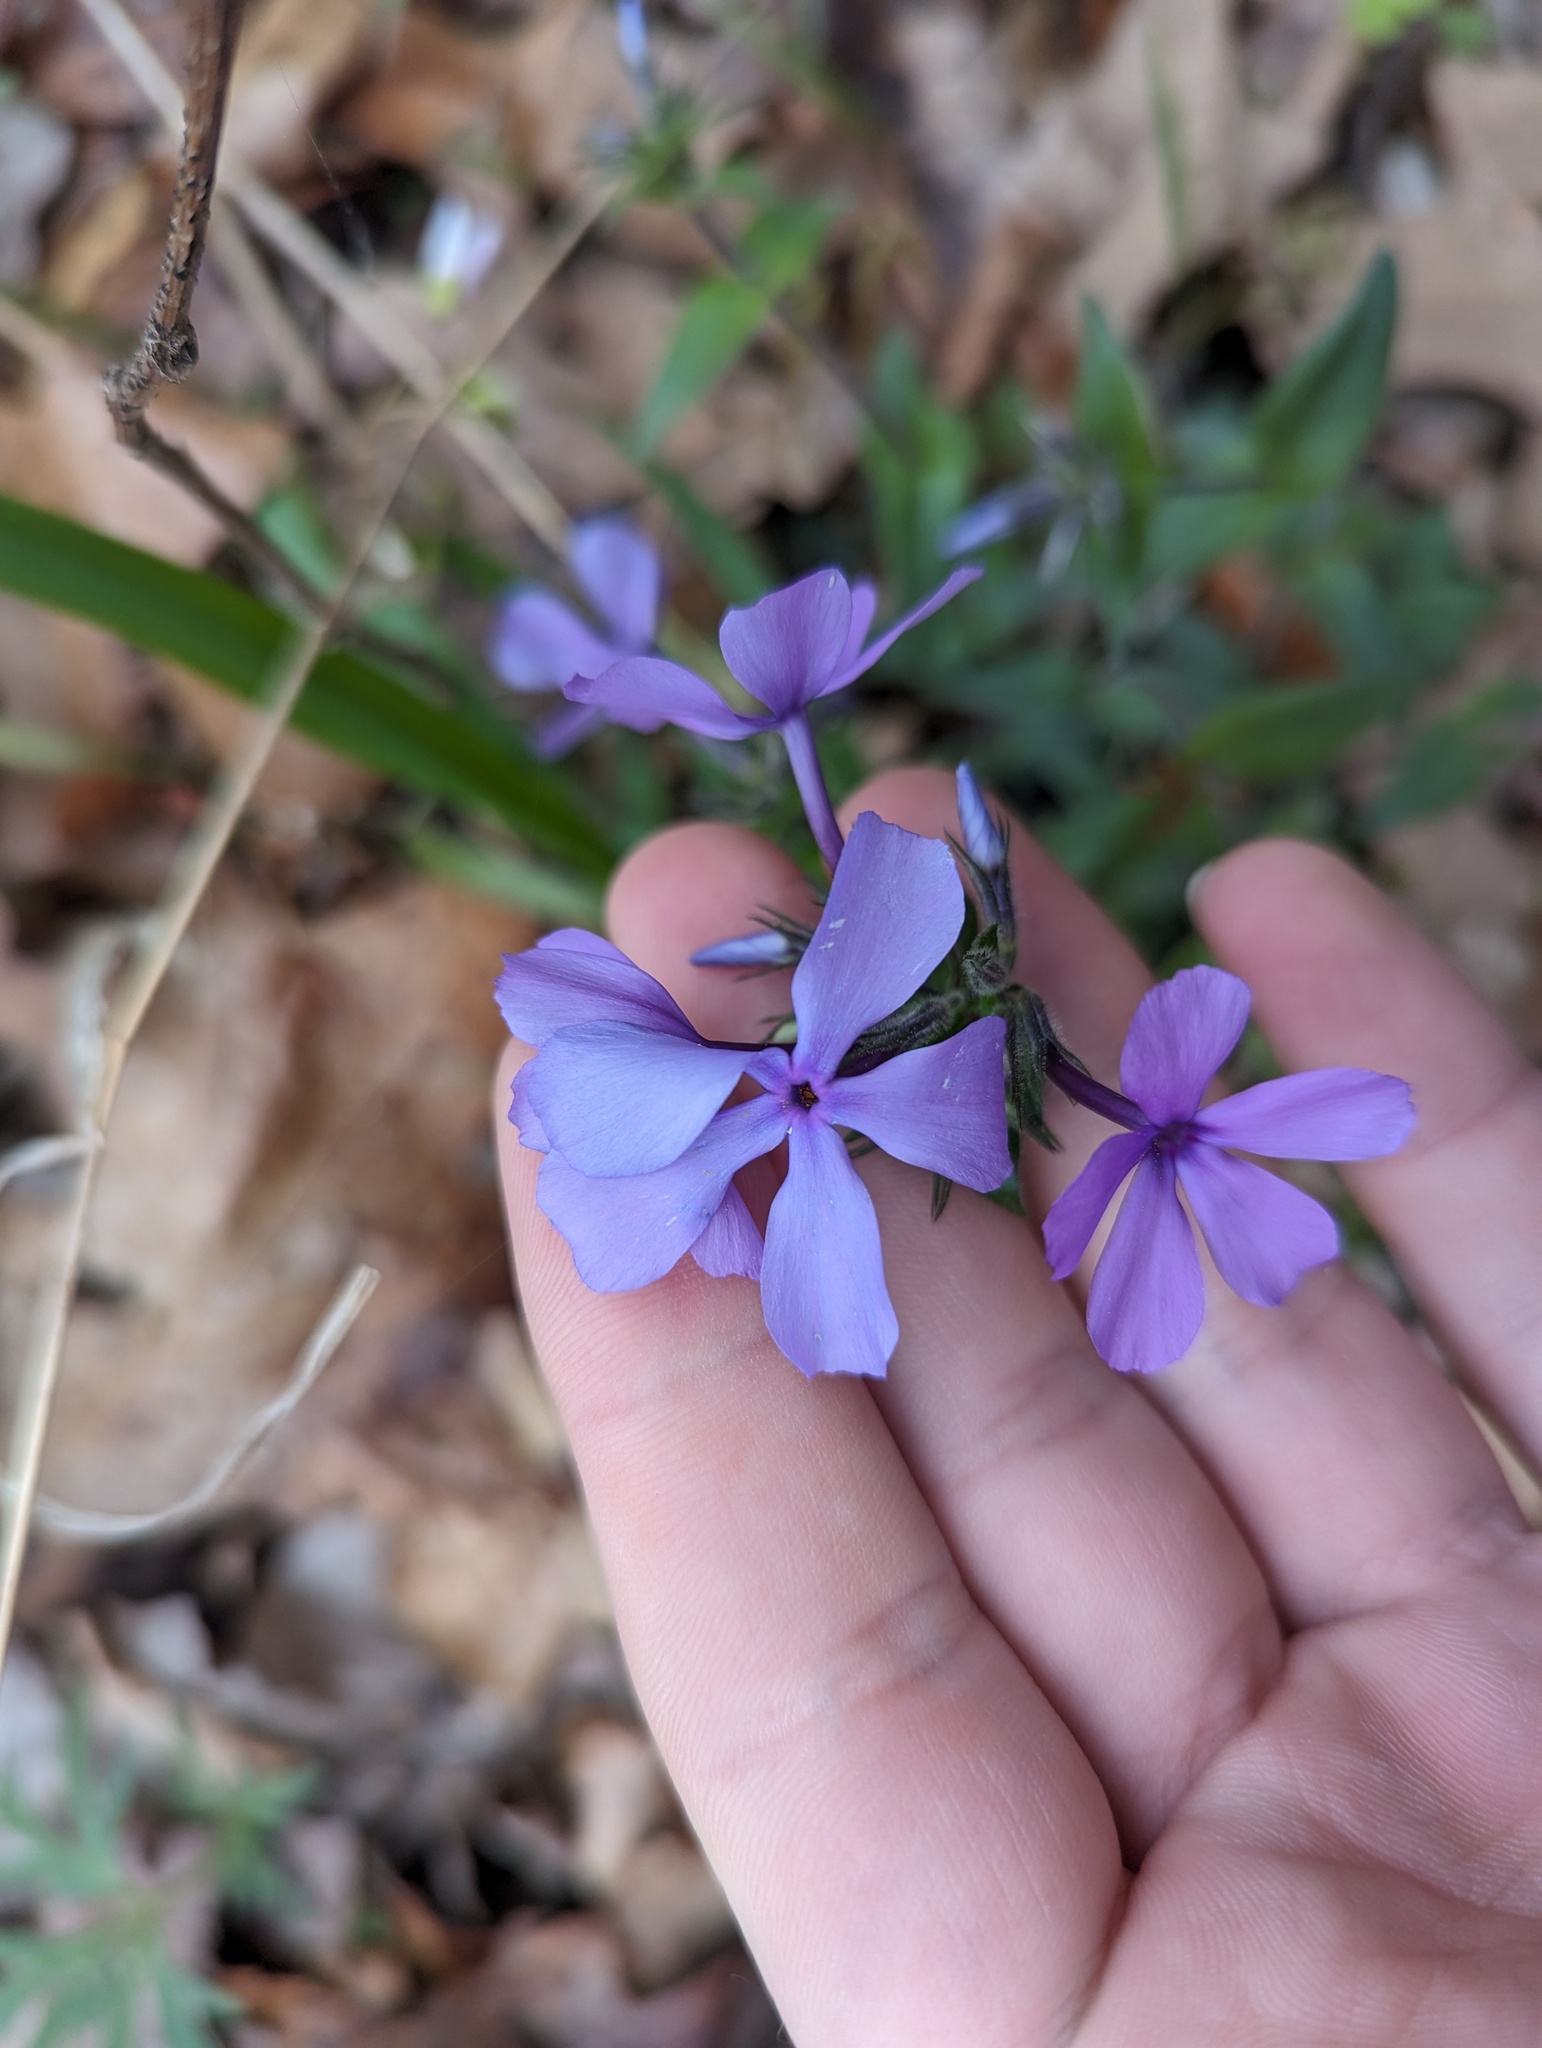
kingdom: Plantae
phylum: Tracheophyta
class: Magnoliopsida
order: Ericales
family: Polemoniaceae
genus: Phlox
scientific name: Phlox divaricata
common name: Blue phlox
